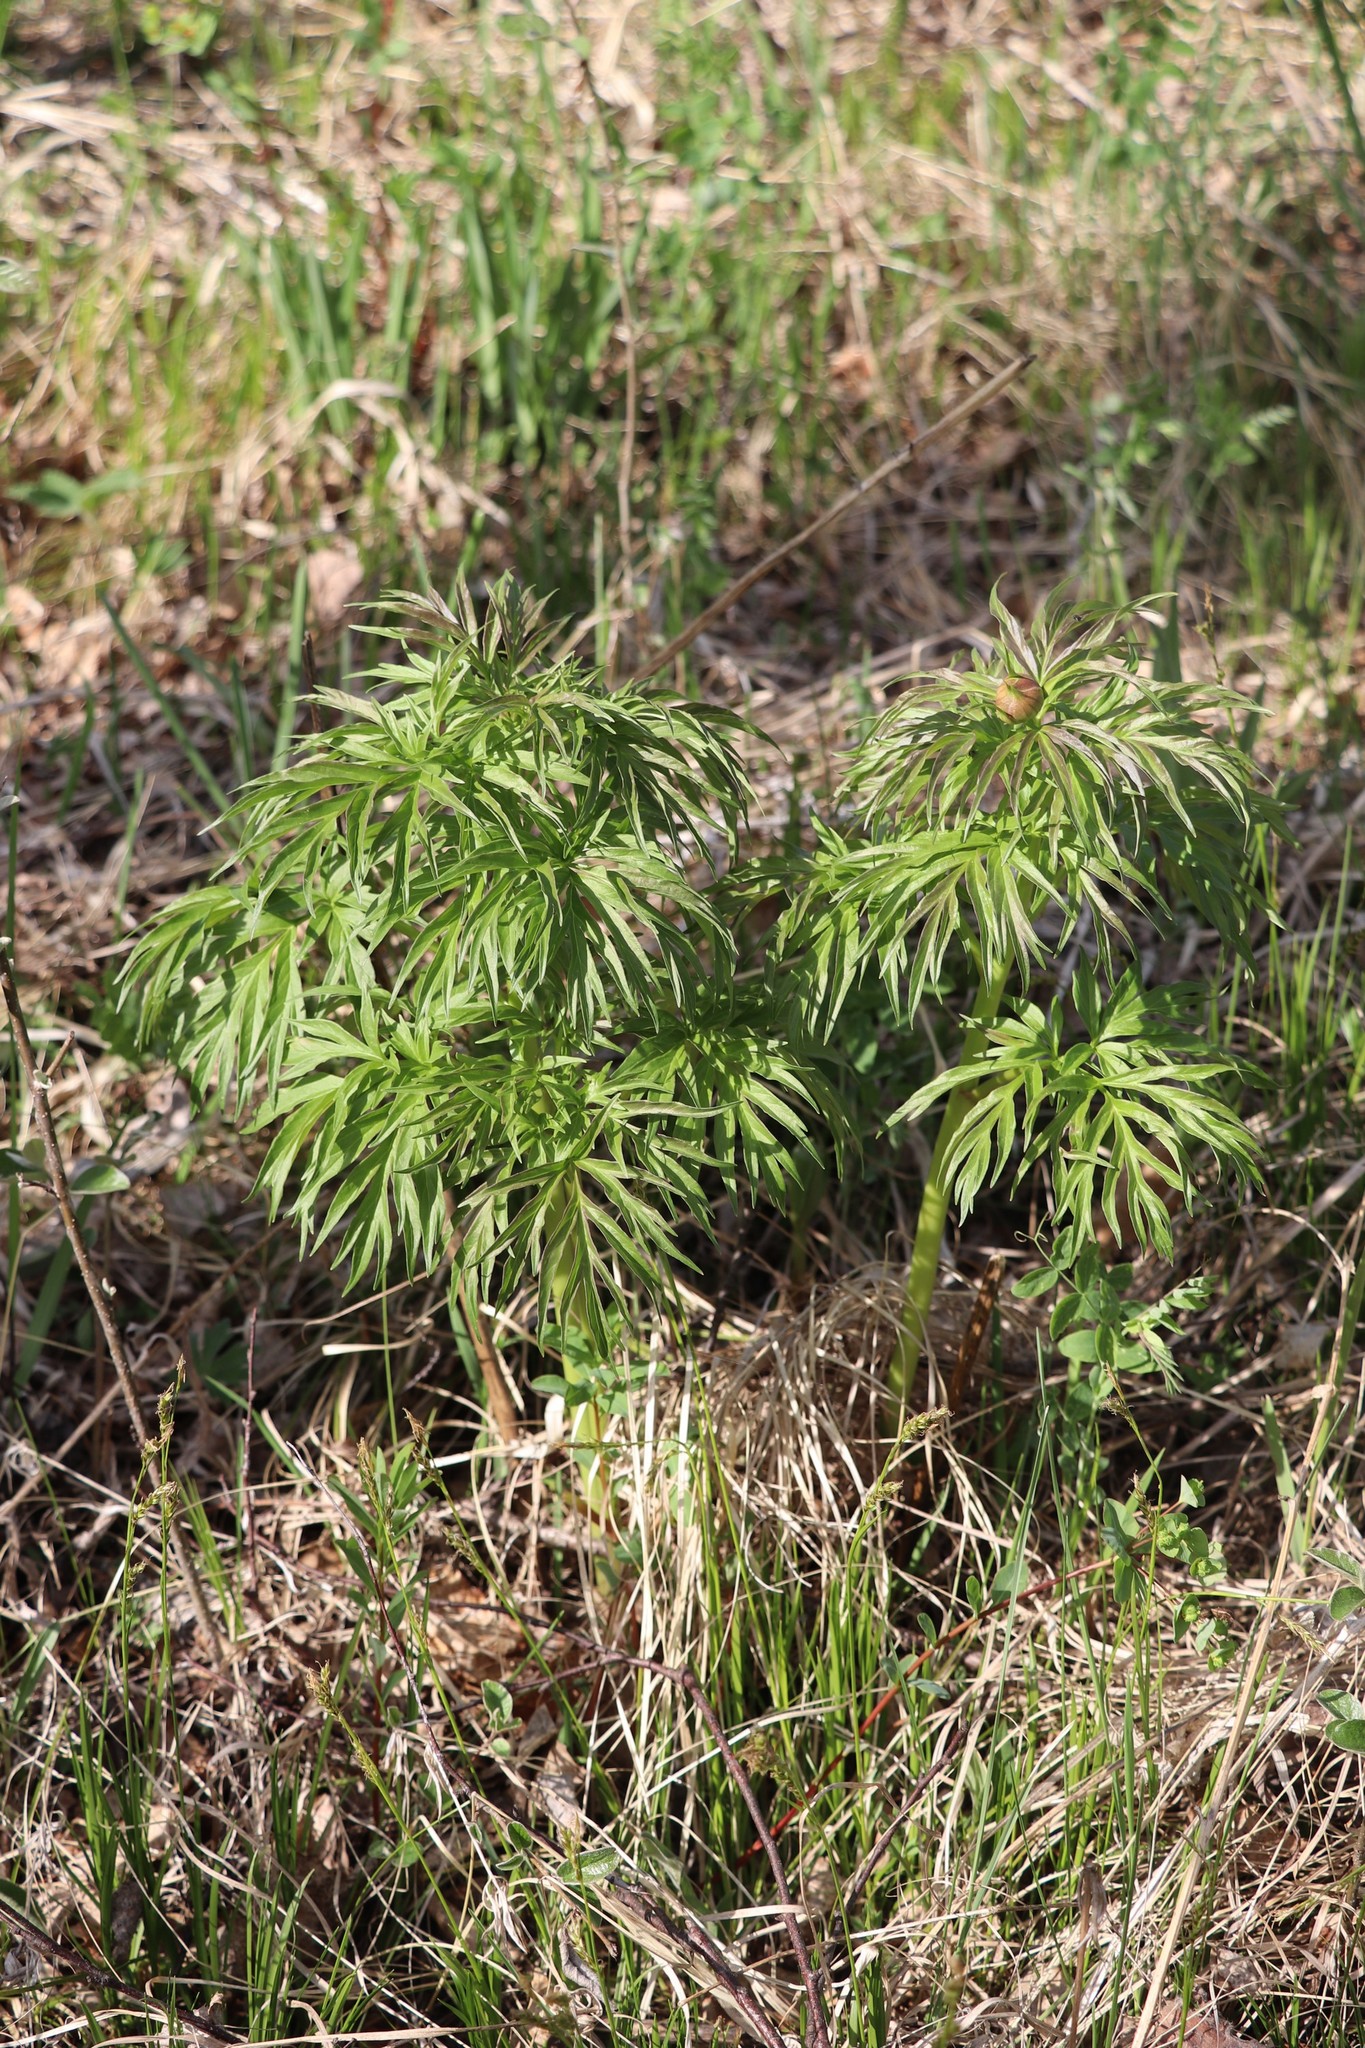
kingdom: Plantae
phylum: Tracheophyta
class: Magnoliopsida
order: Saxifragales
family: Paeoniaceae
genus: Paeonia
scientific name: Paeonia anomala
